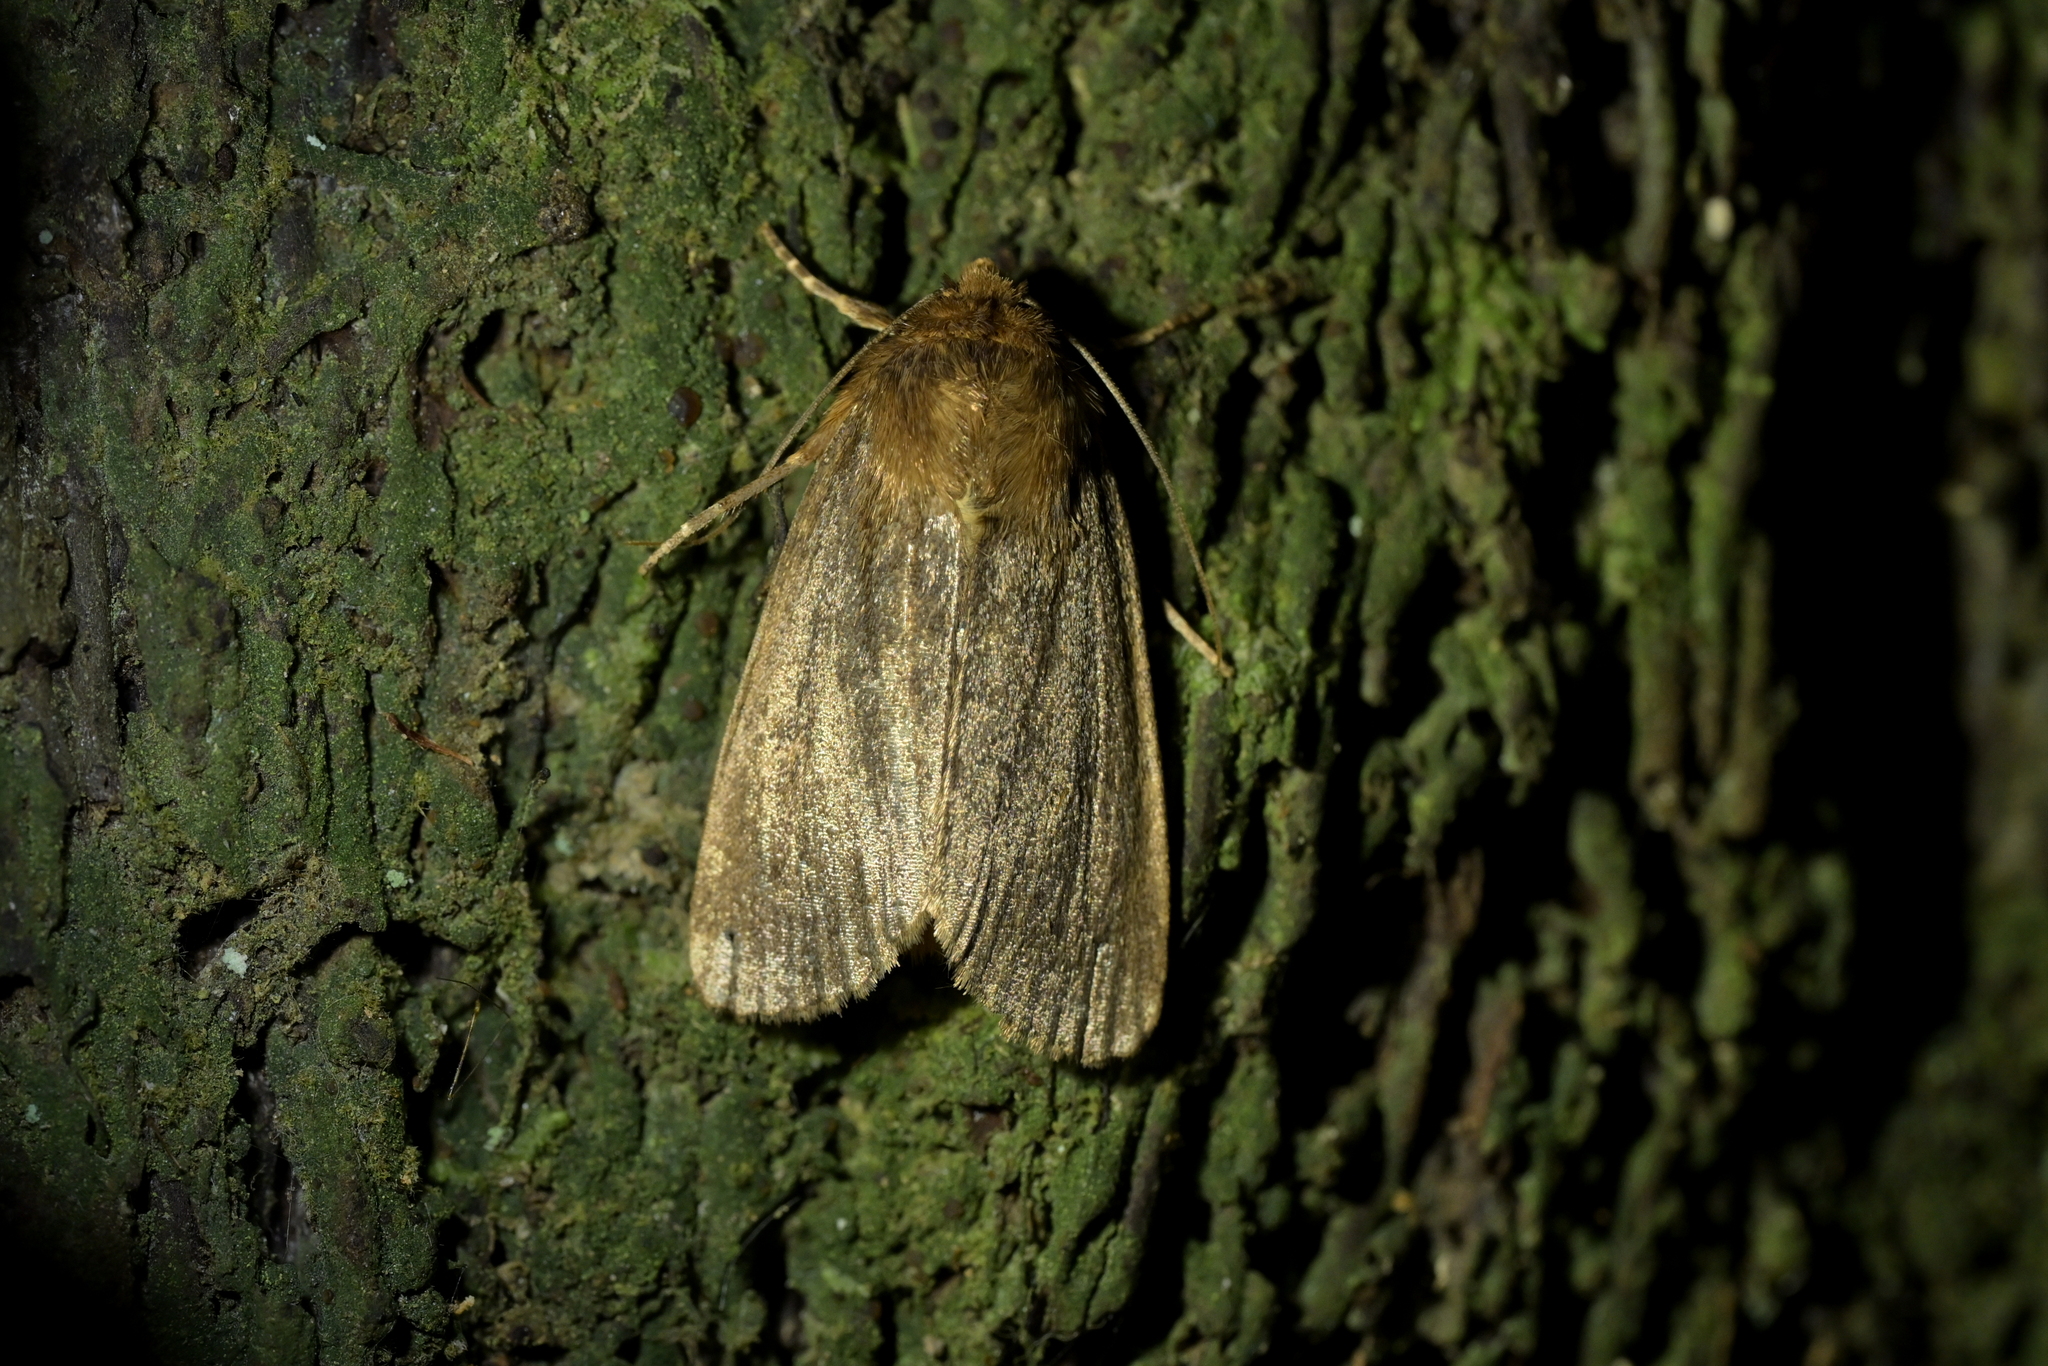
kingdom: Animalia
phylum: Arthropoda
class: Insecta
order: Lepidoptera
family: Noctuidae
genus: Bityla
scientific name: Bityla defigurata
